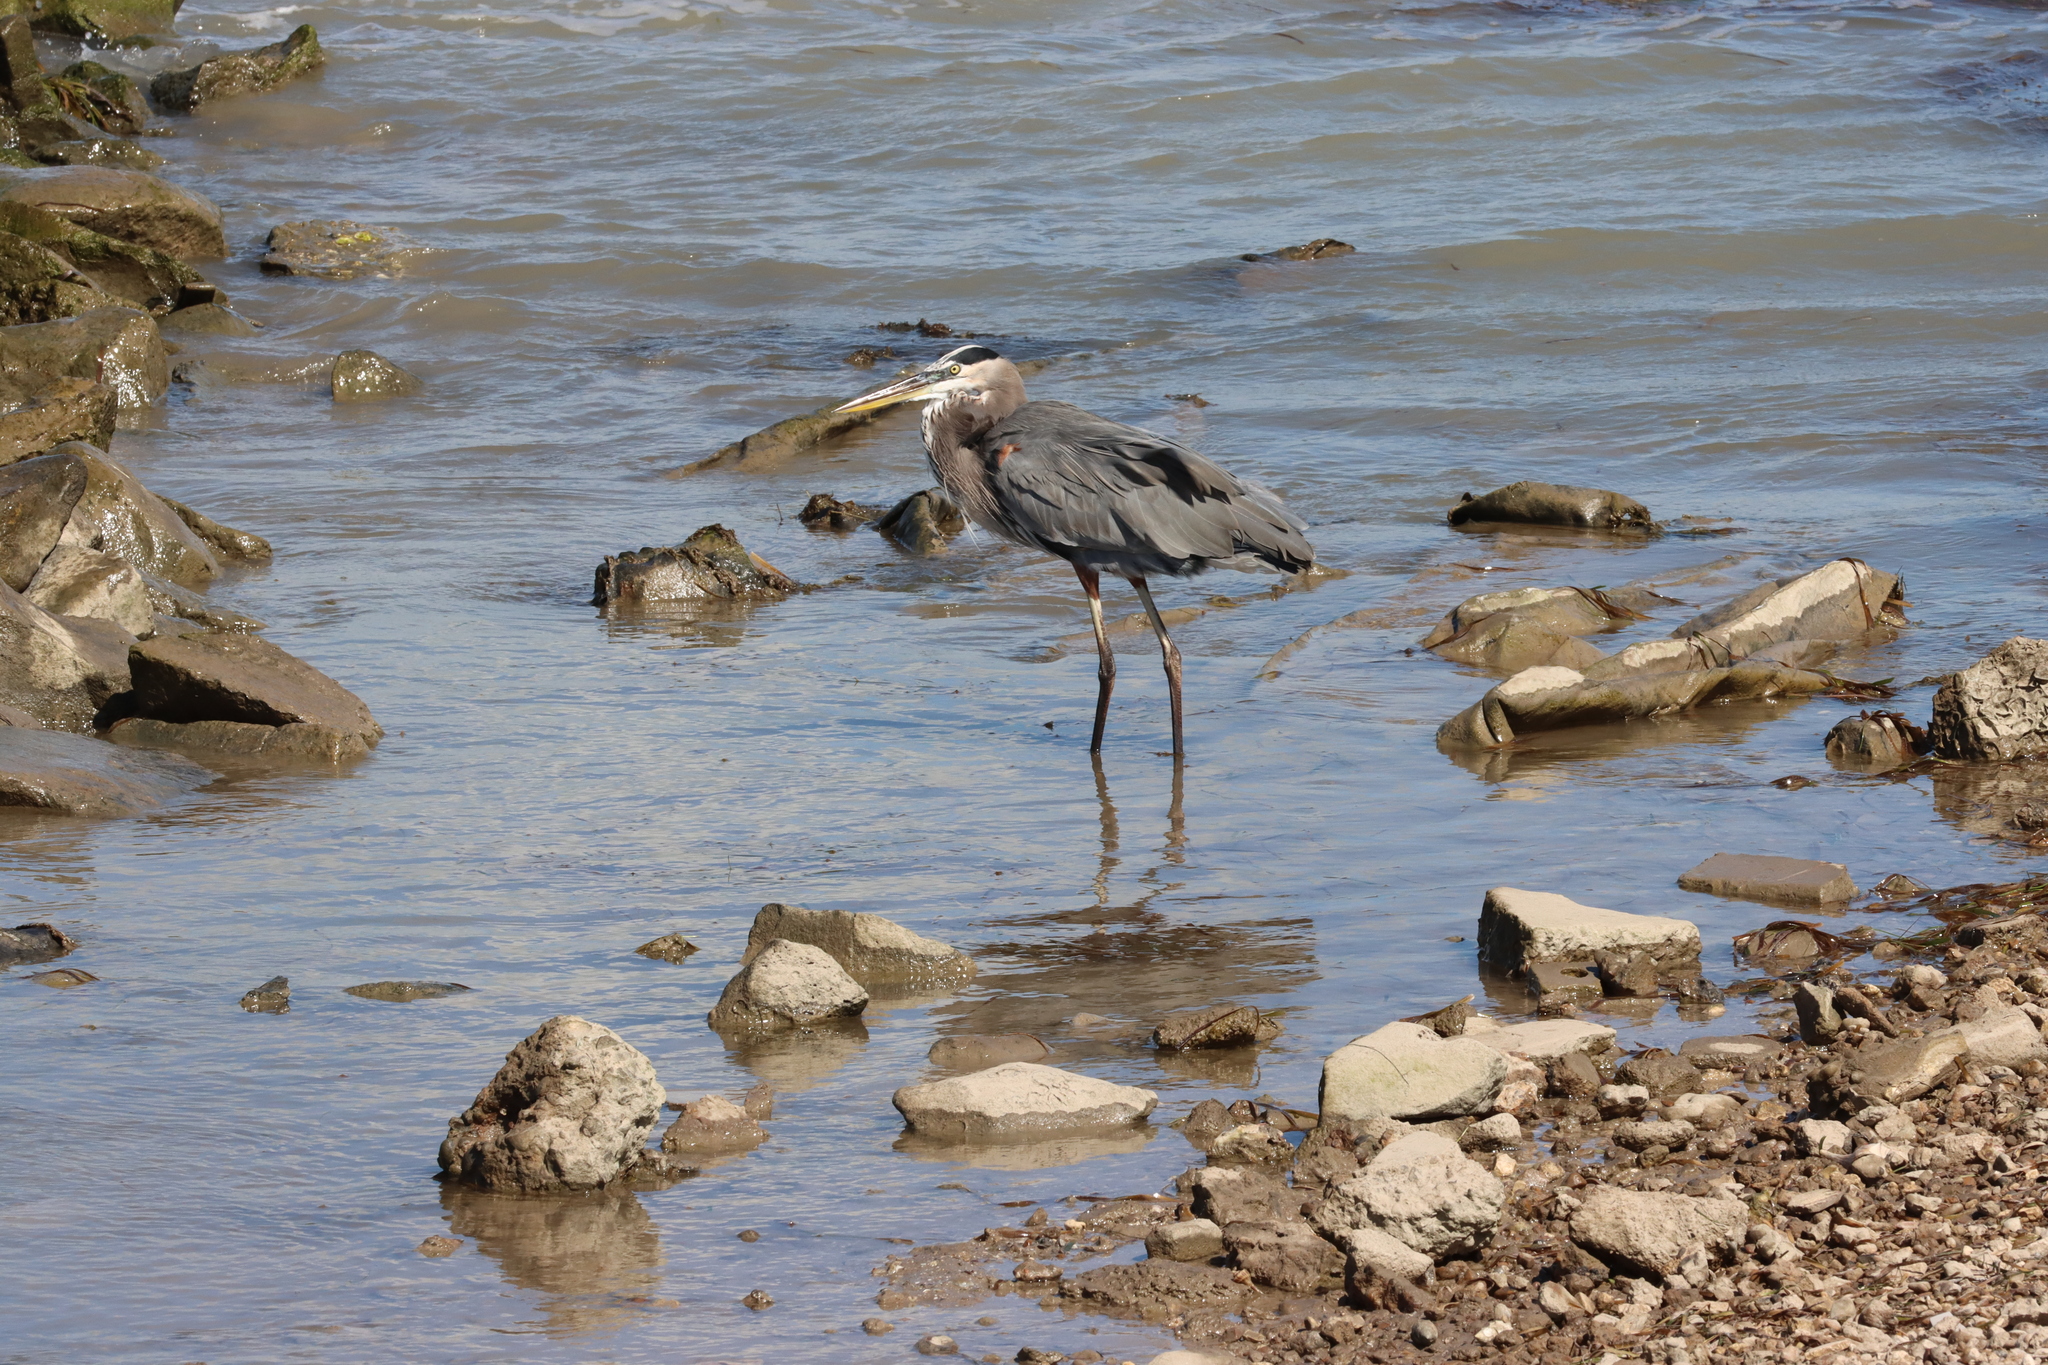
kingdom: Animalia
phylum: Chordata
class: Aves
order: Pelecaniformes
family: Ardeidae
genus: Ardea
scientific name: Ardea herodias
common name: Great blue heron
